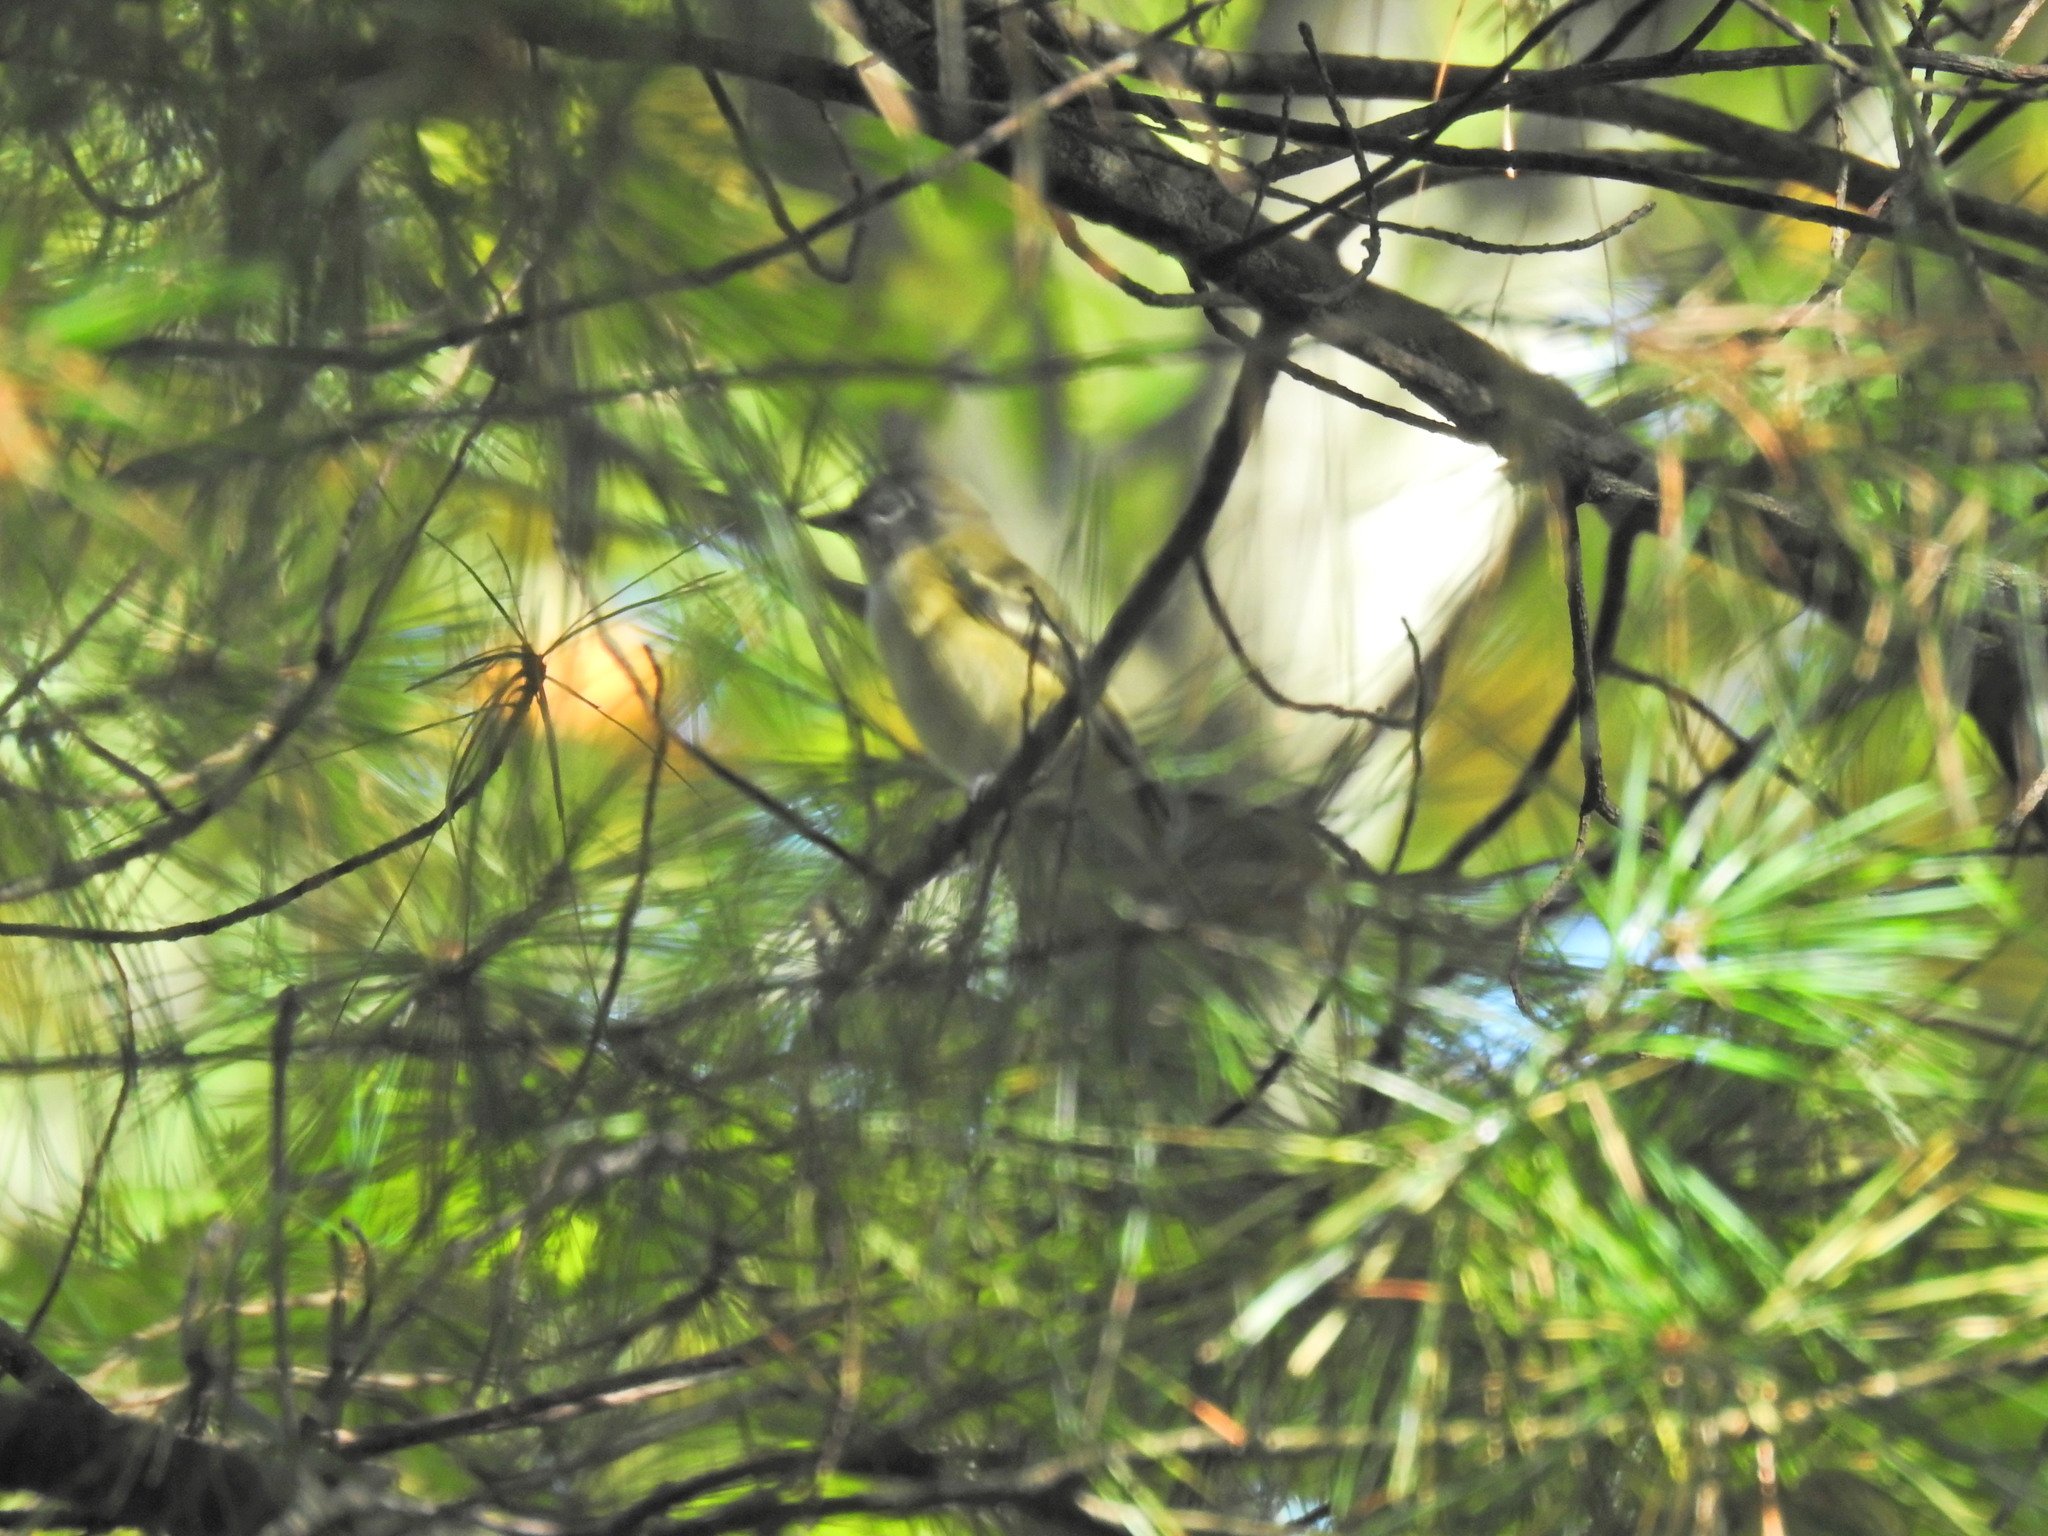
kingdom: Animalia
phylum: Chordata
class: Aves
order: Passeriformes
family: Vireonidae
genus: Vireo
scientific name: Vireo solitarius
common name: Blue-headed vireo
